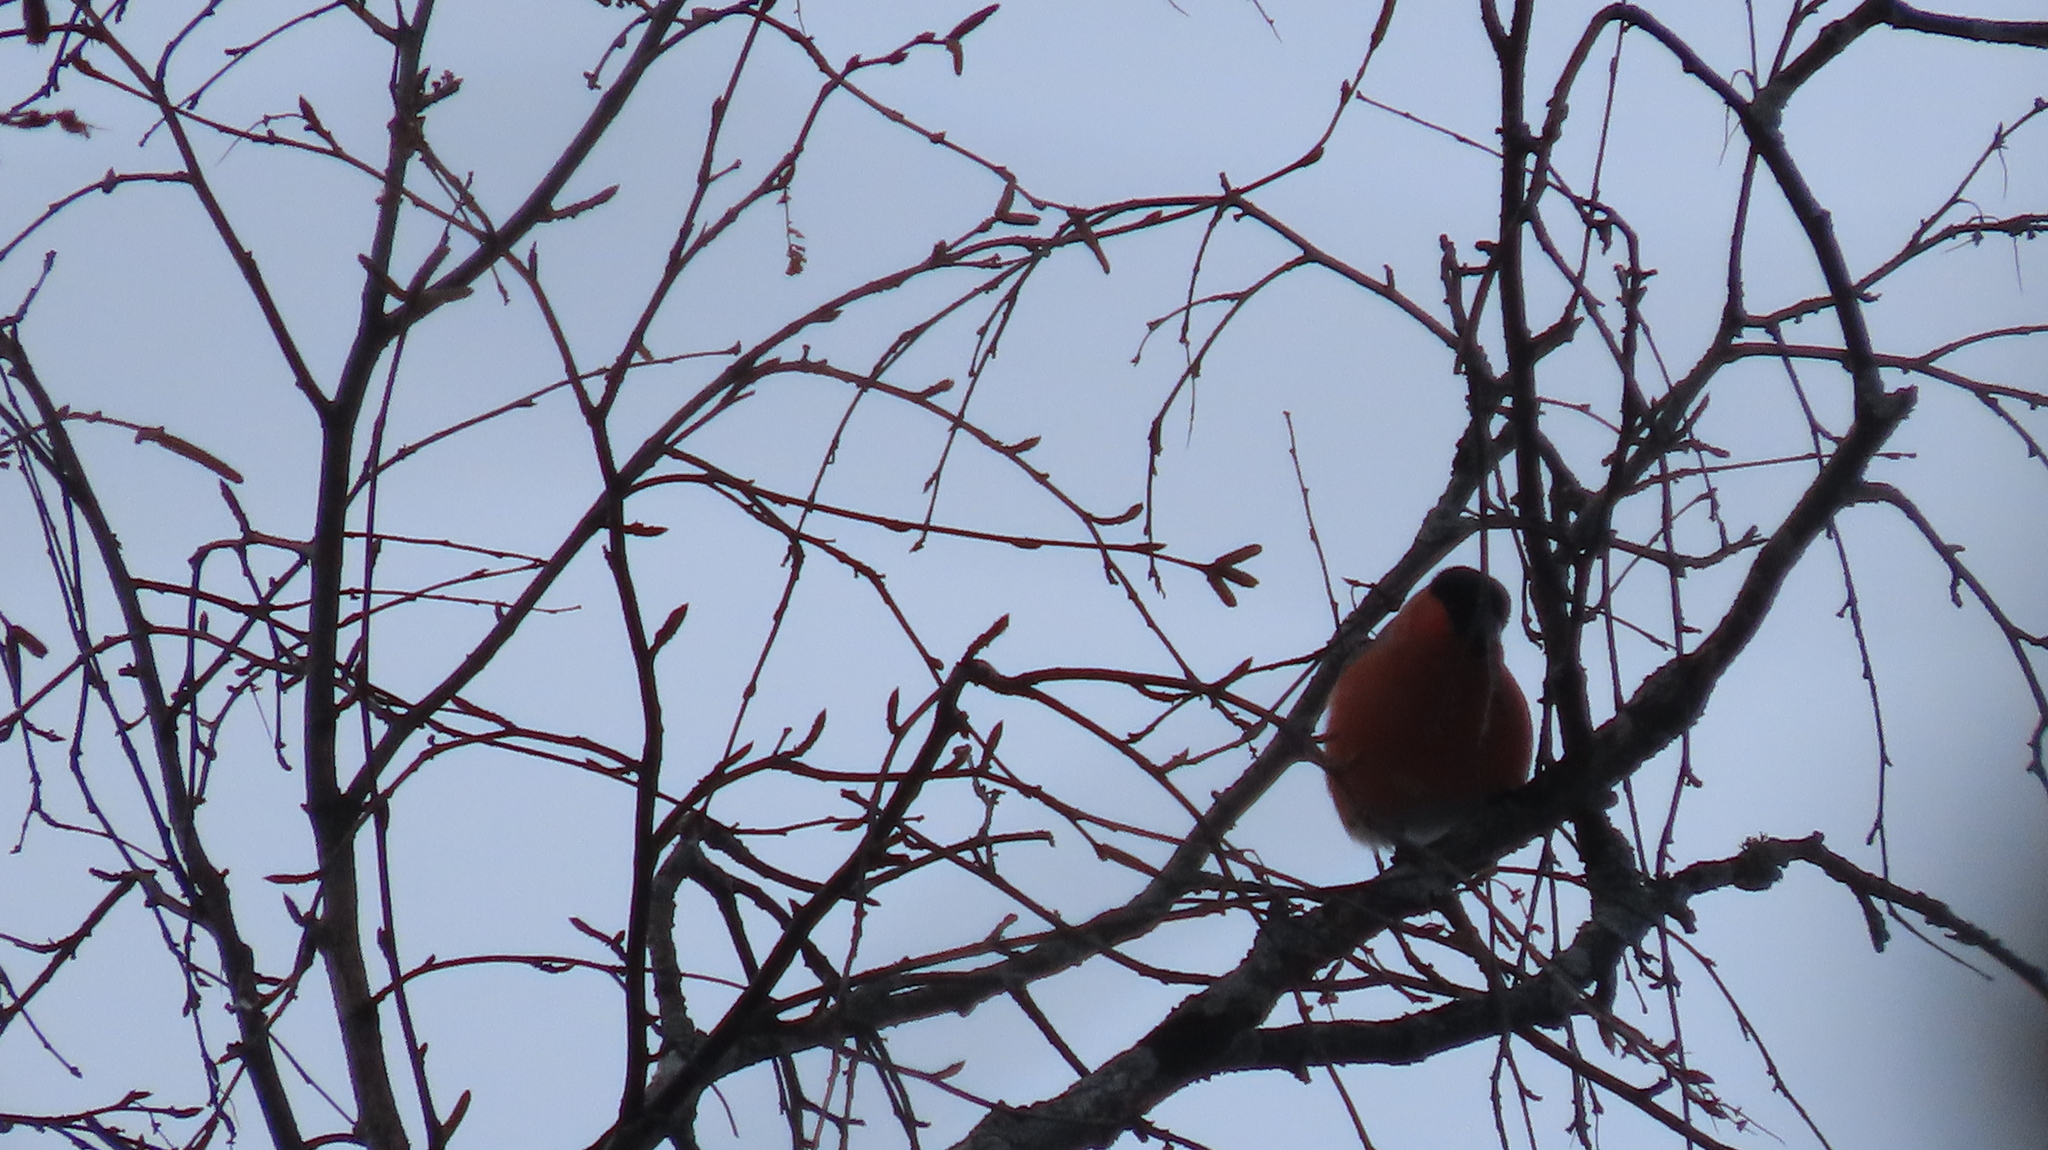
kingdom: Animalia
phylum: Chordata
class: Aves
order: Passeriformes
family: Fringillidae
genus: Pyrrhula
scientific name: Pyrrhula pyrrhula
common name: Eurasian bullfinch
